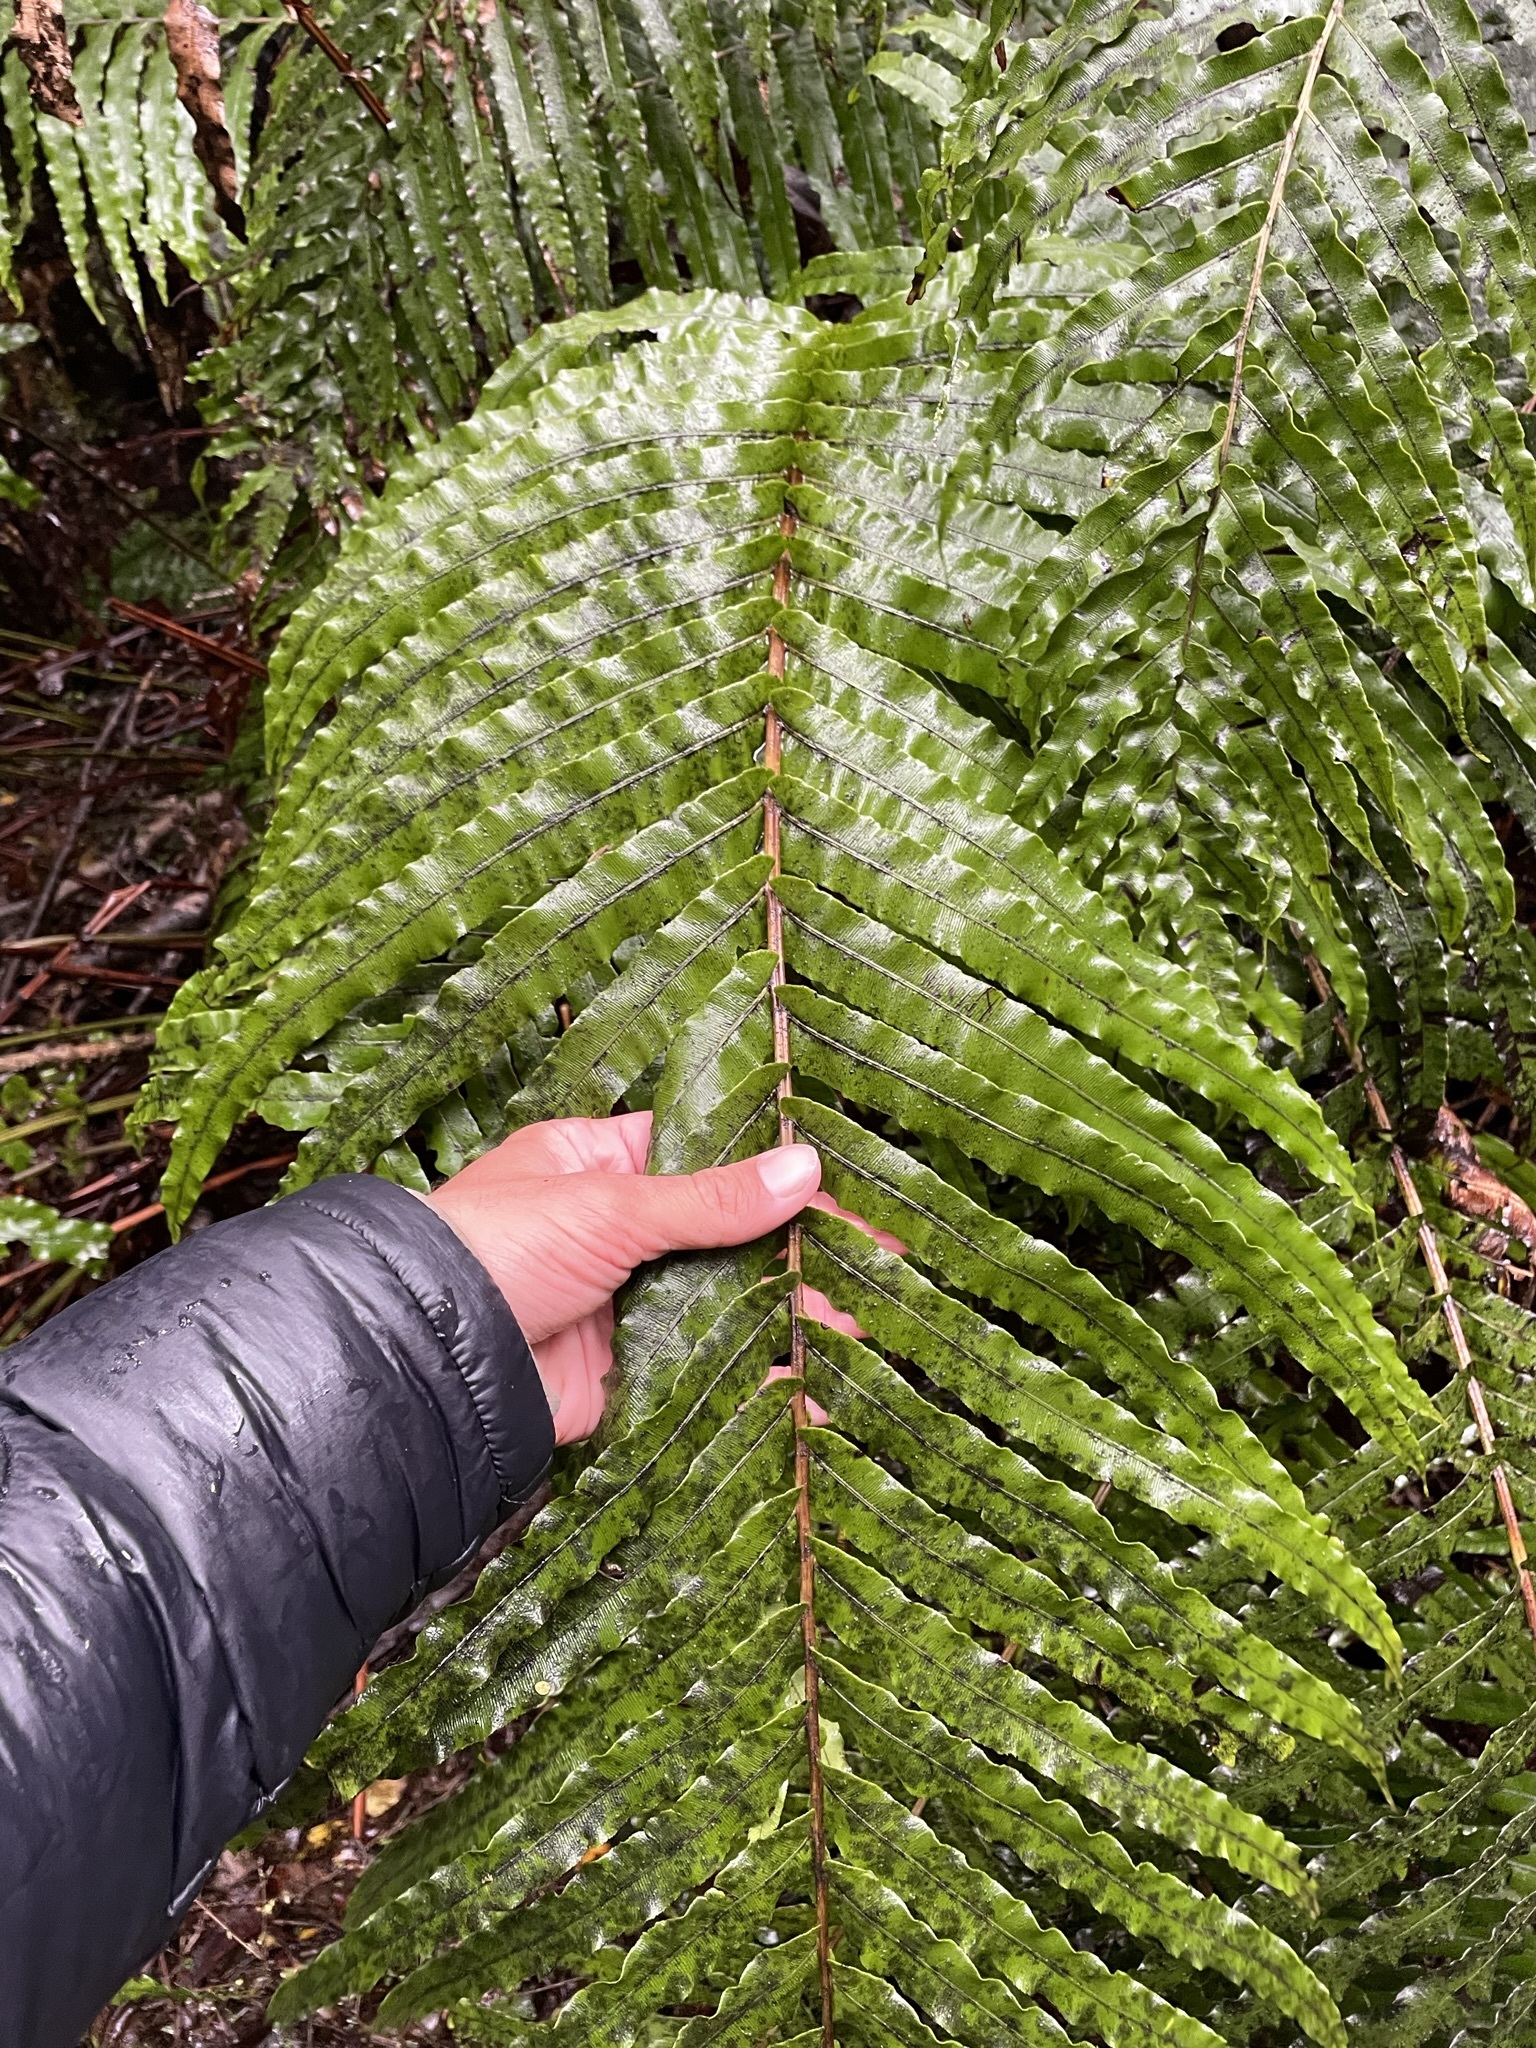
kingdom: Plantae
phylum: Tracheophyta
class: Polypodiopsida
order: Polypodiales
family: Blechnaceae
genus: Parablechnum
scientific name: Parablechnum novae-zelandiae
